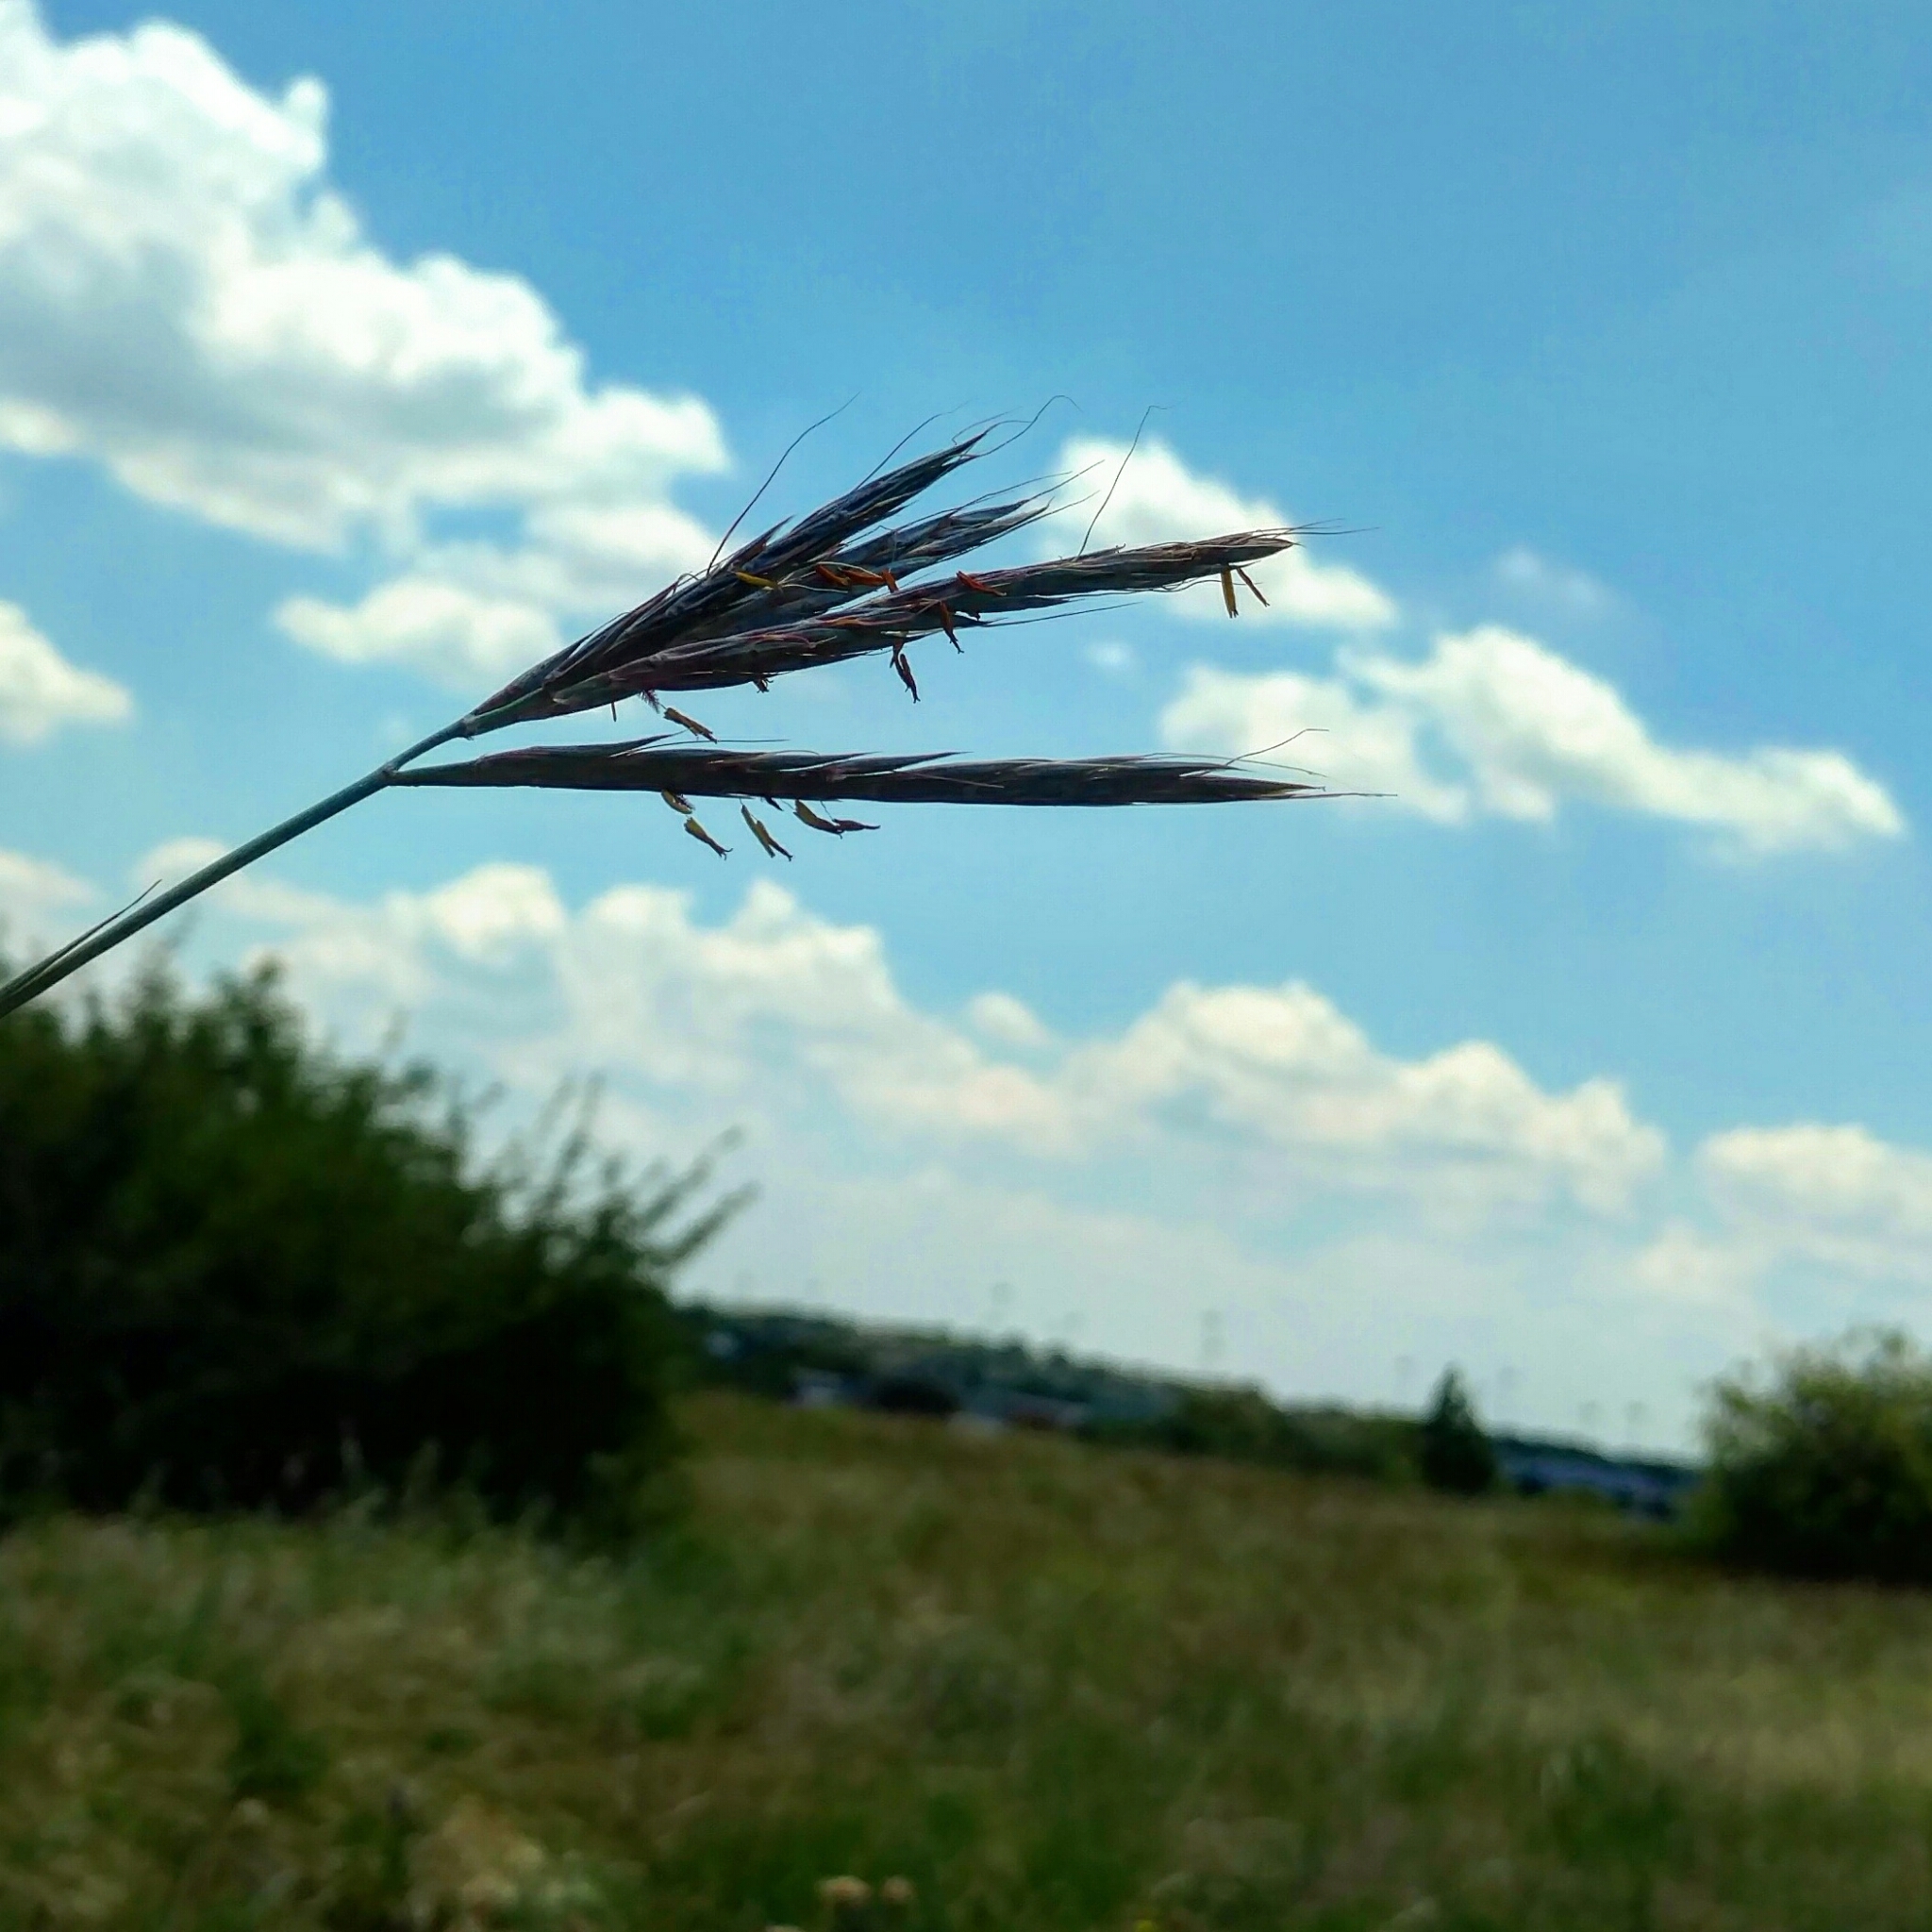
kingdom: Plantae
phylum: Tracheophyta
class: Liliopsida
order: Poales
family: Poaceae
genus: Andropogon
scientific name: Andropogon gerardi
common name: Big bluestem
